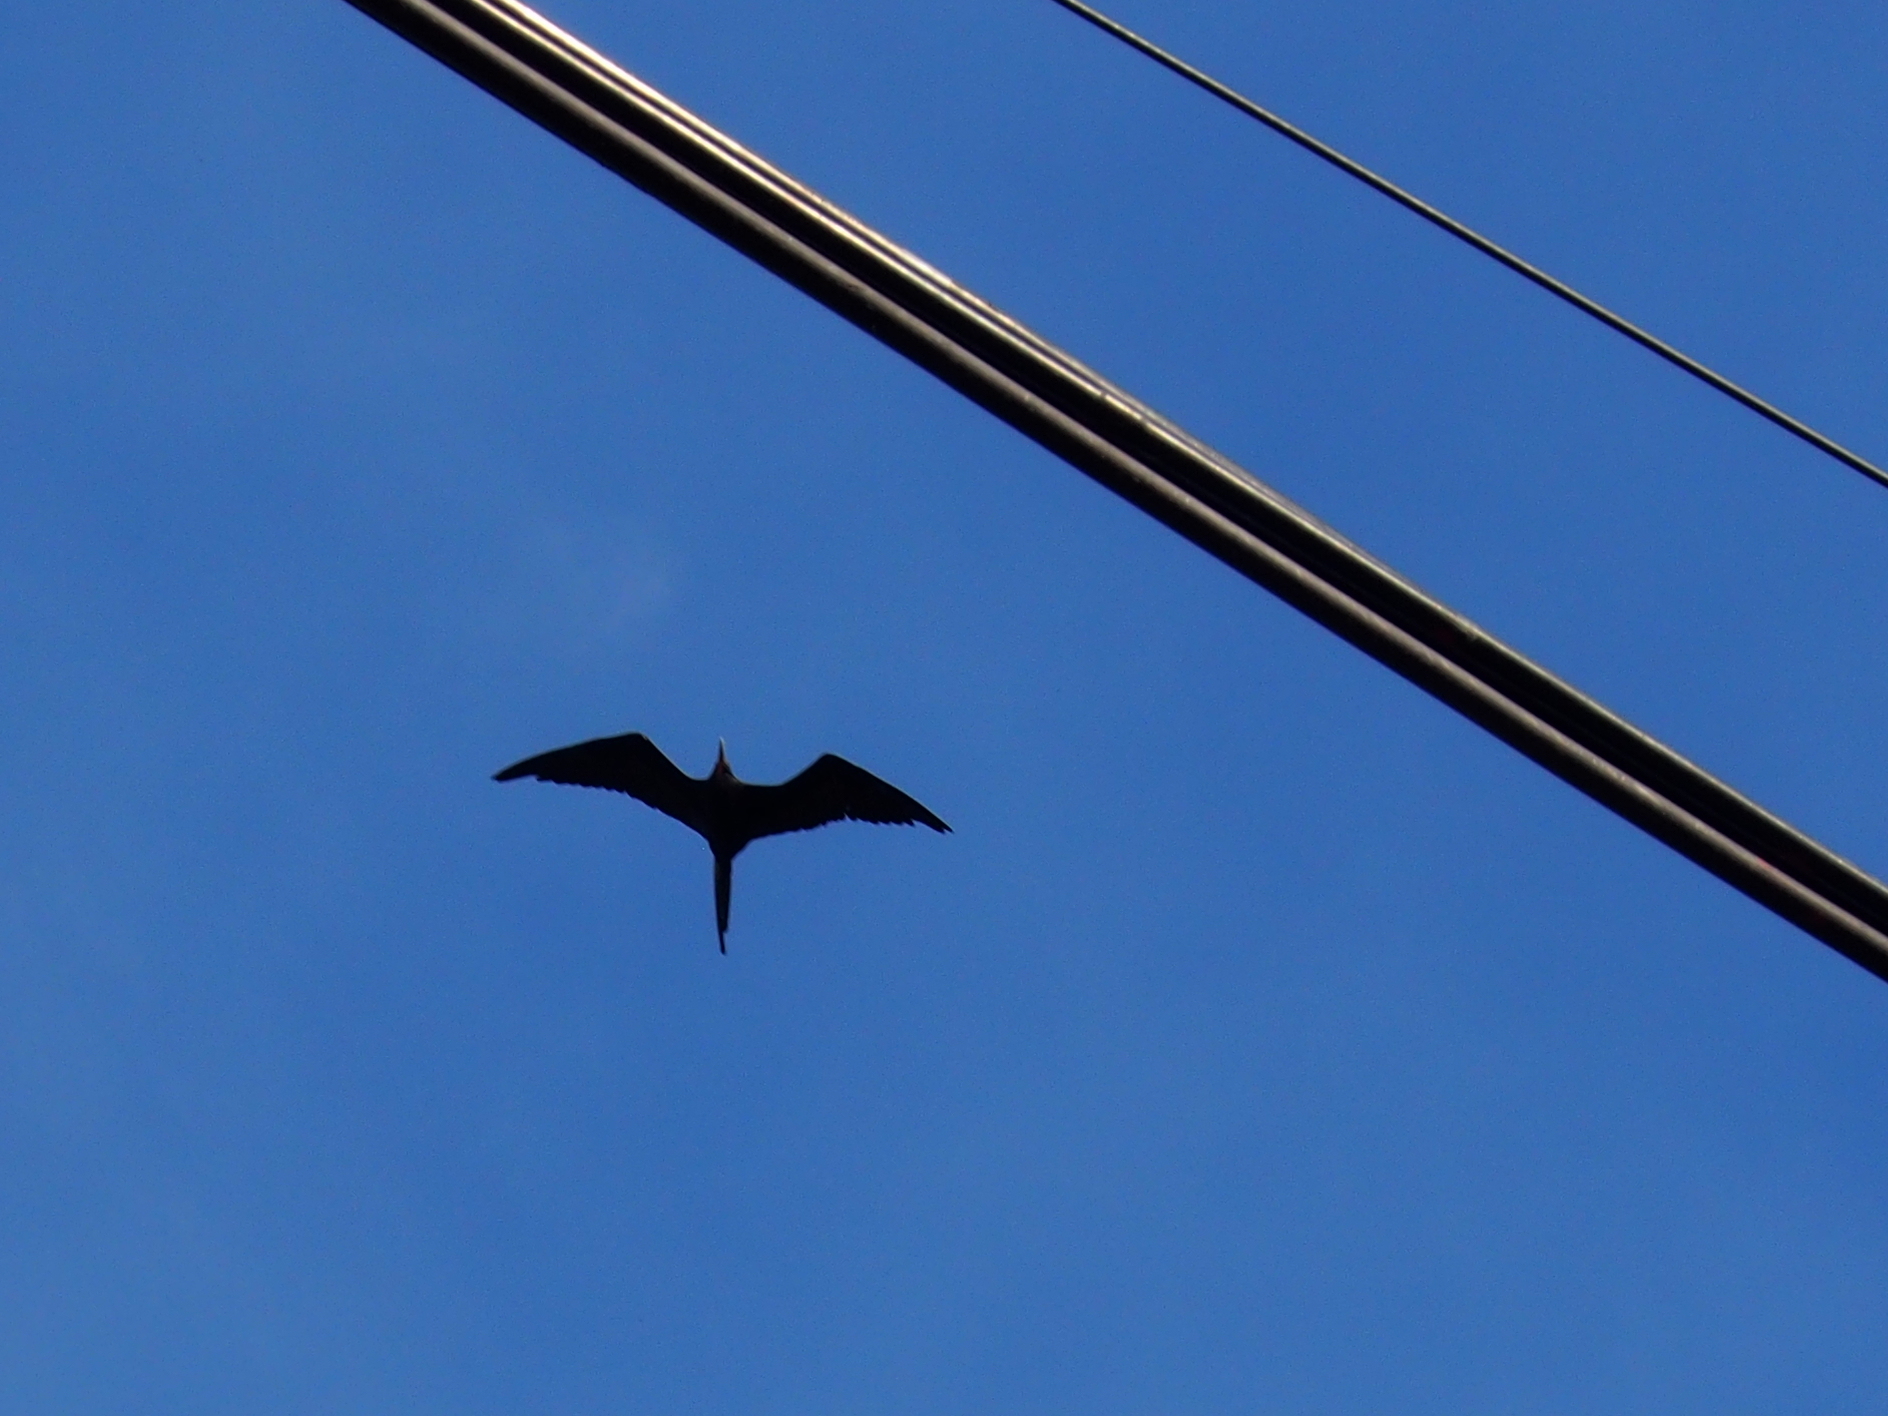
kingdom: Animalia
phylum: Chordata
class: Aves
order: Suliformes
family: Fregatidae
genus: Fregata
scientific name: Fregata magnificens
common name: Magnificent frigatebird
